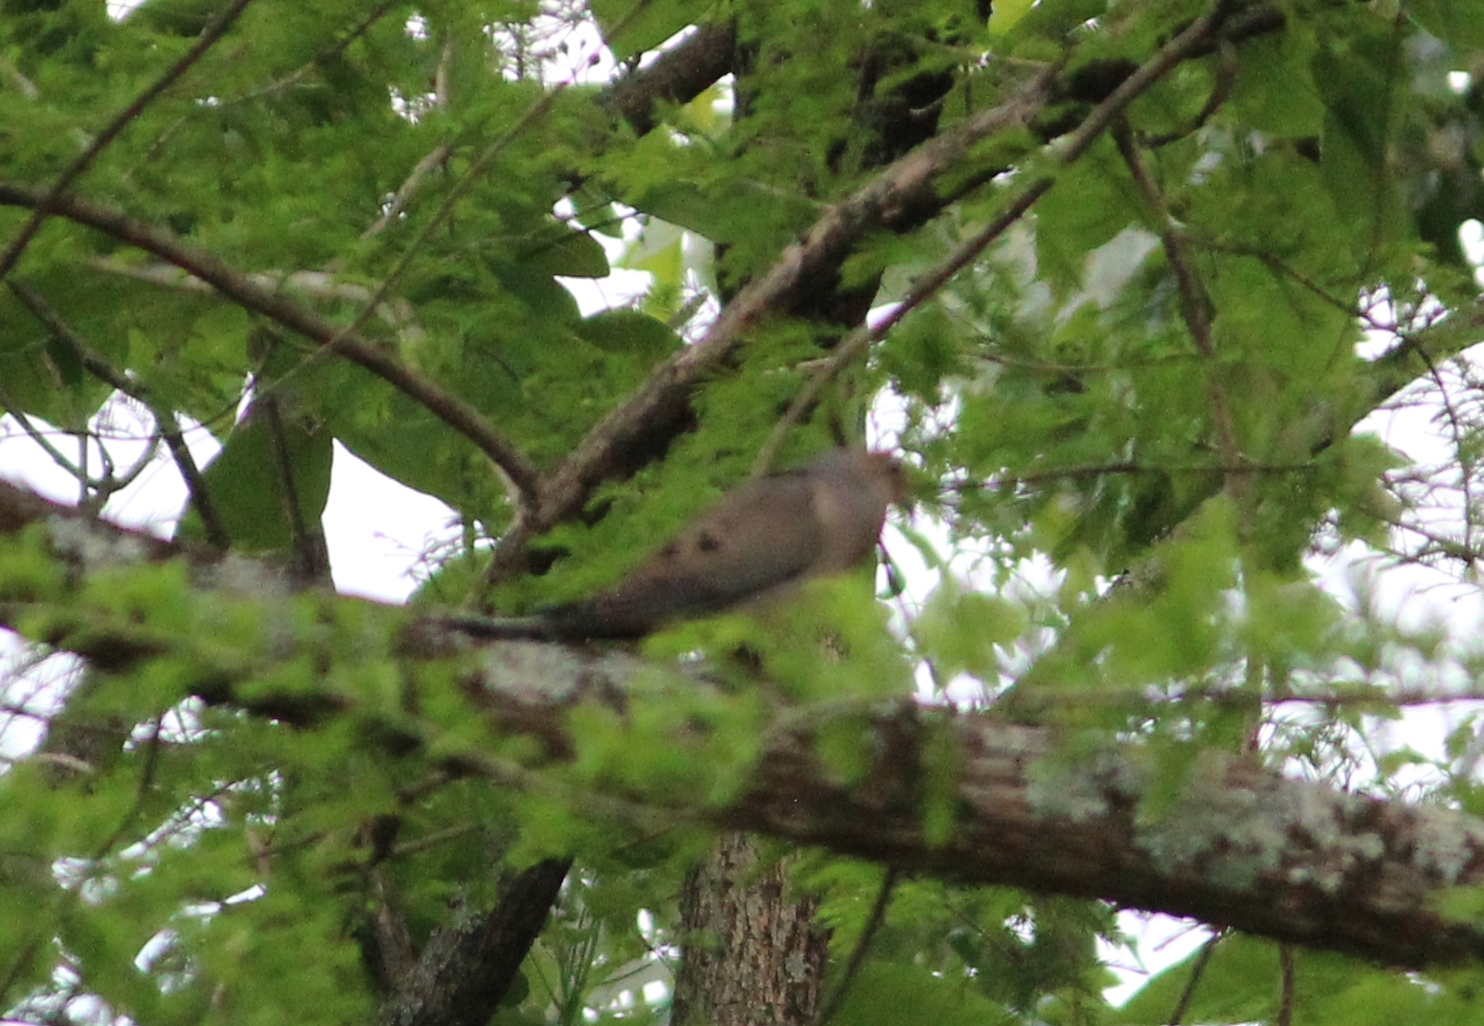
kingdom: Animalia
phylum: Chordata
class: Aves
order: Columbiformes
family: Columbidae
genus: Zenaida
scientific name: Zenaida macroura
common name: Mourning dove
